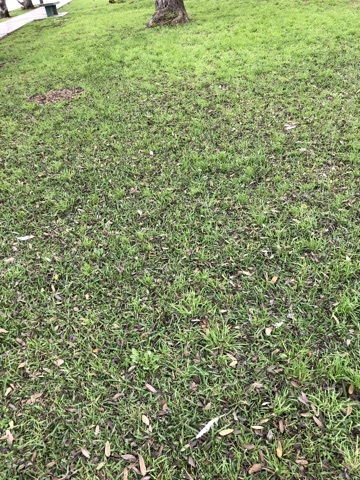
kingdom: Animalia
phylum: Chordata
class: Aves
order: Columbiformes
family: Columbidae
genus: Columba
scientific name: Columba livia
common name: Rock pigeon
